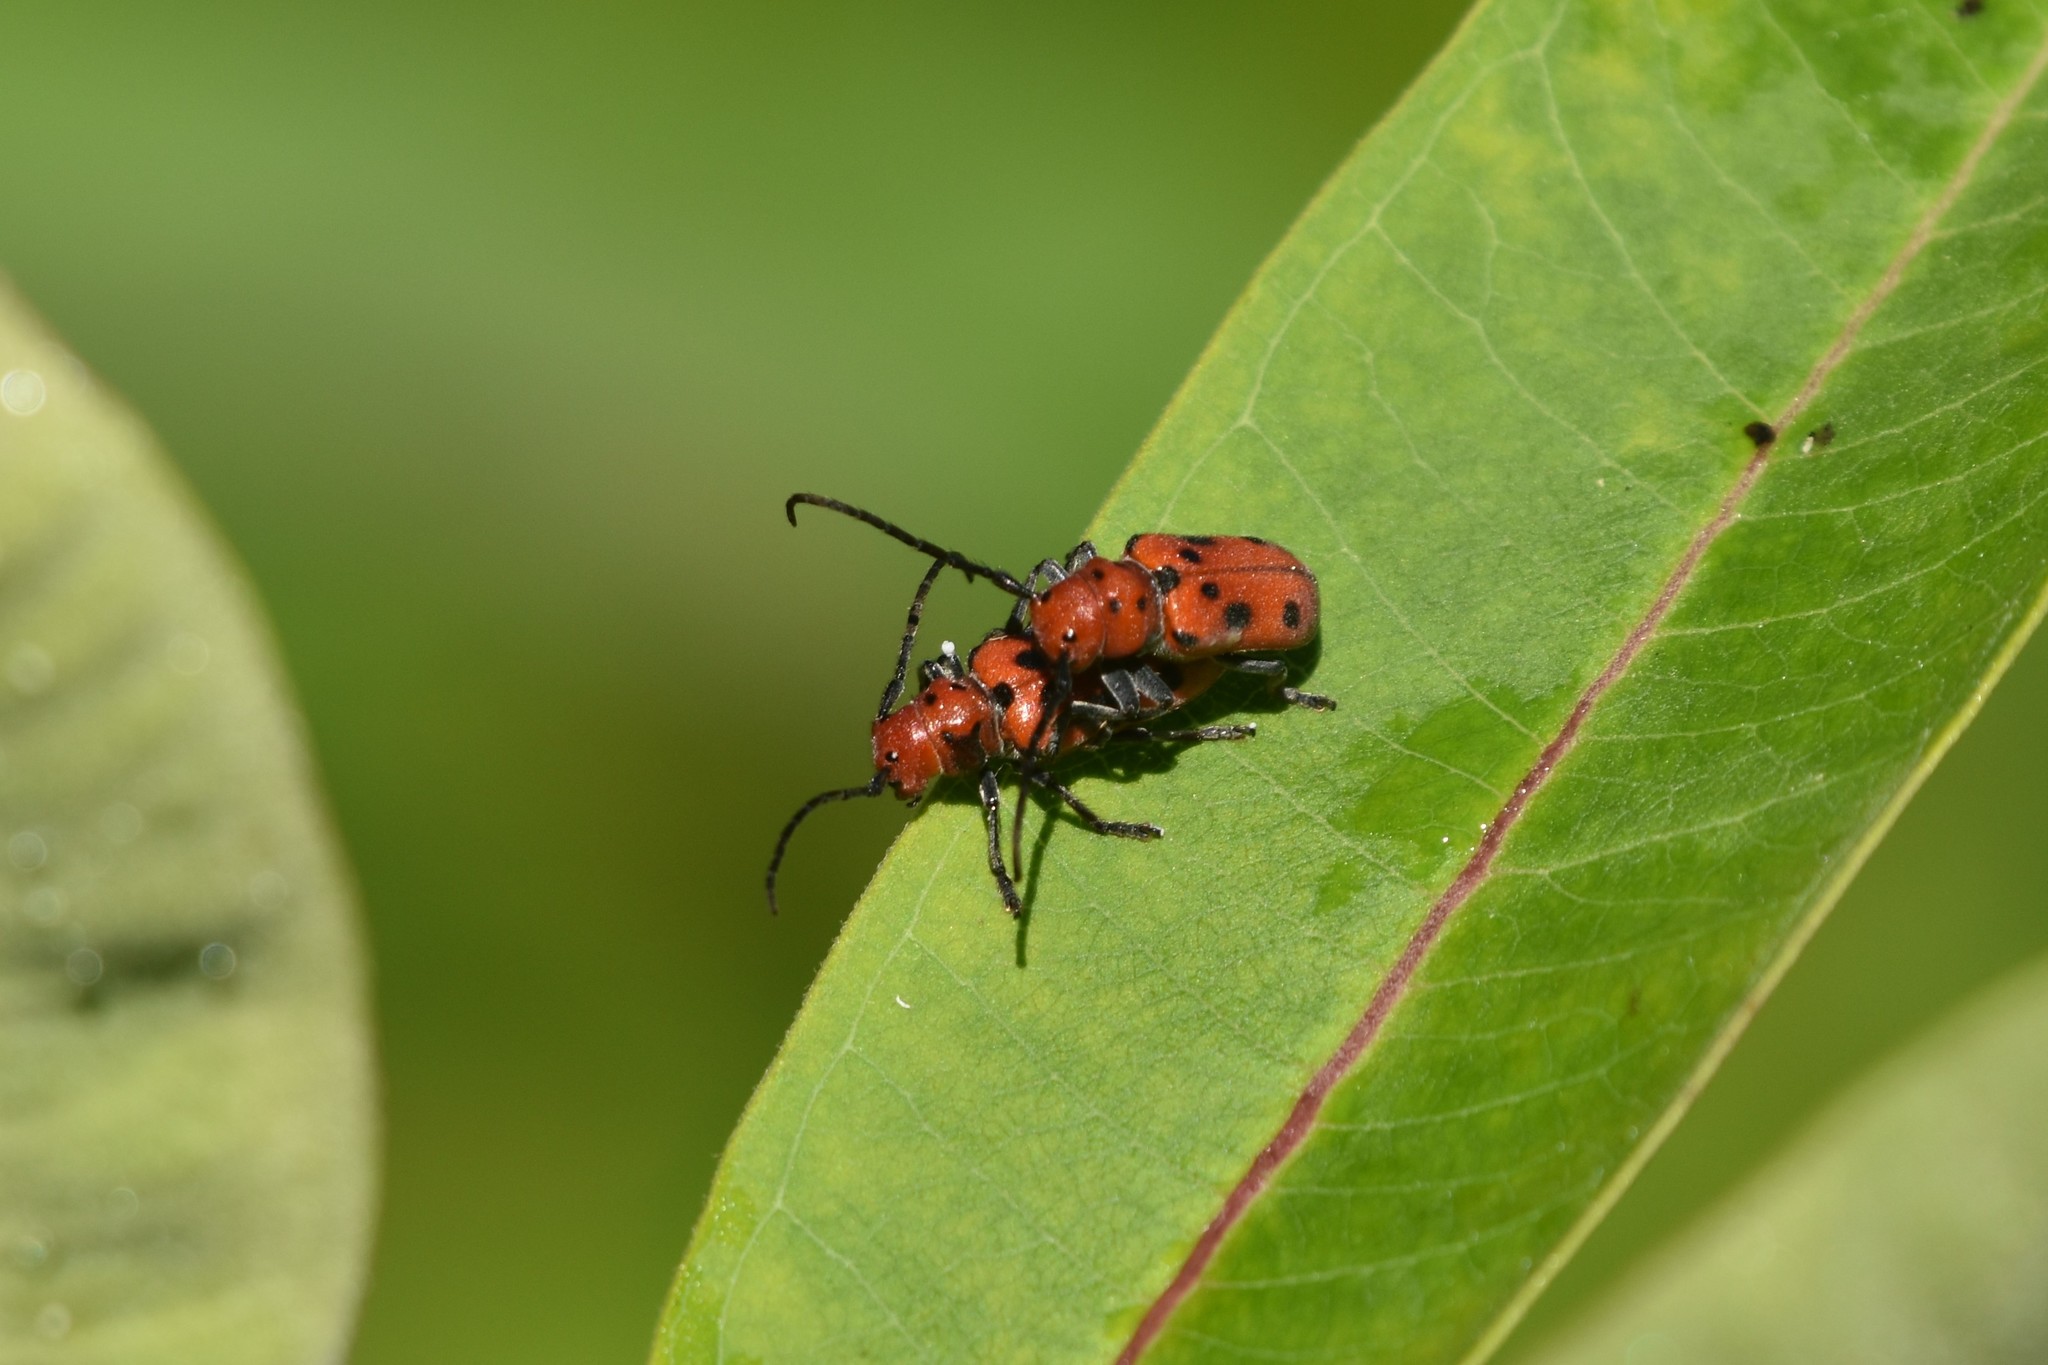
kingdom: Animalia
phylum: Arthropoda
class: Insecta
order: Coleoptera
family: Cerambycidae
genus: Tetraopes
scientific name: Tetraopes tetrophthalmus
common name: Red milkweed beetle
